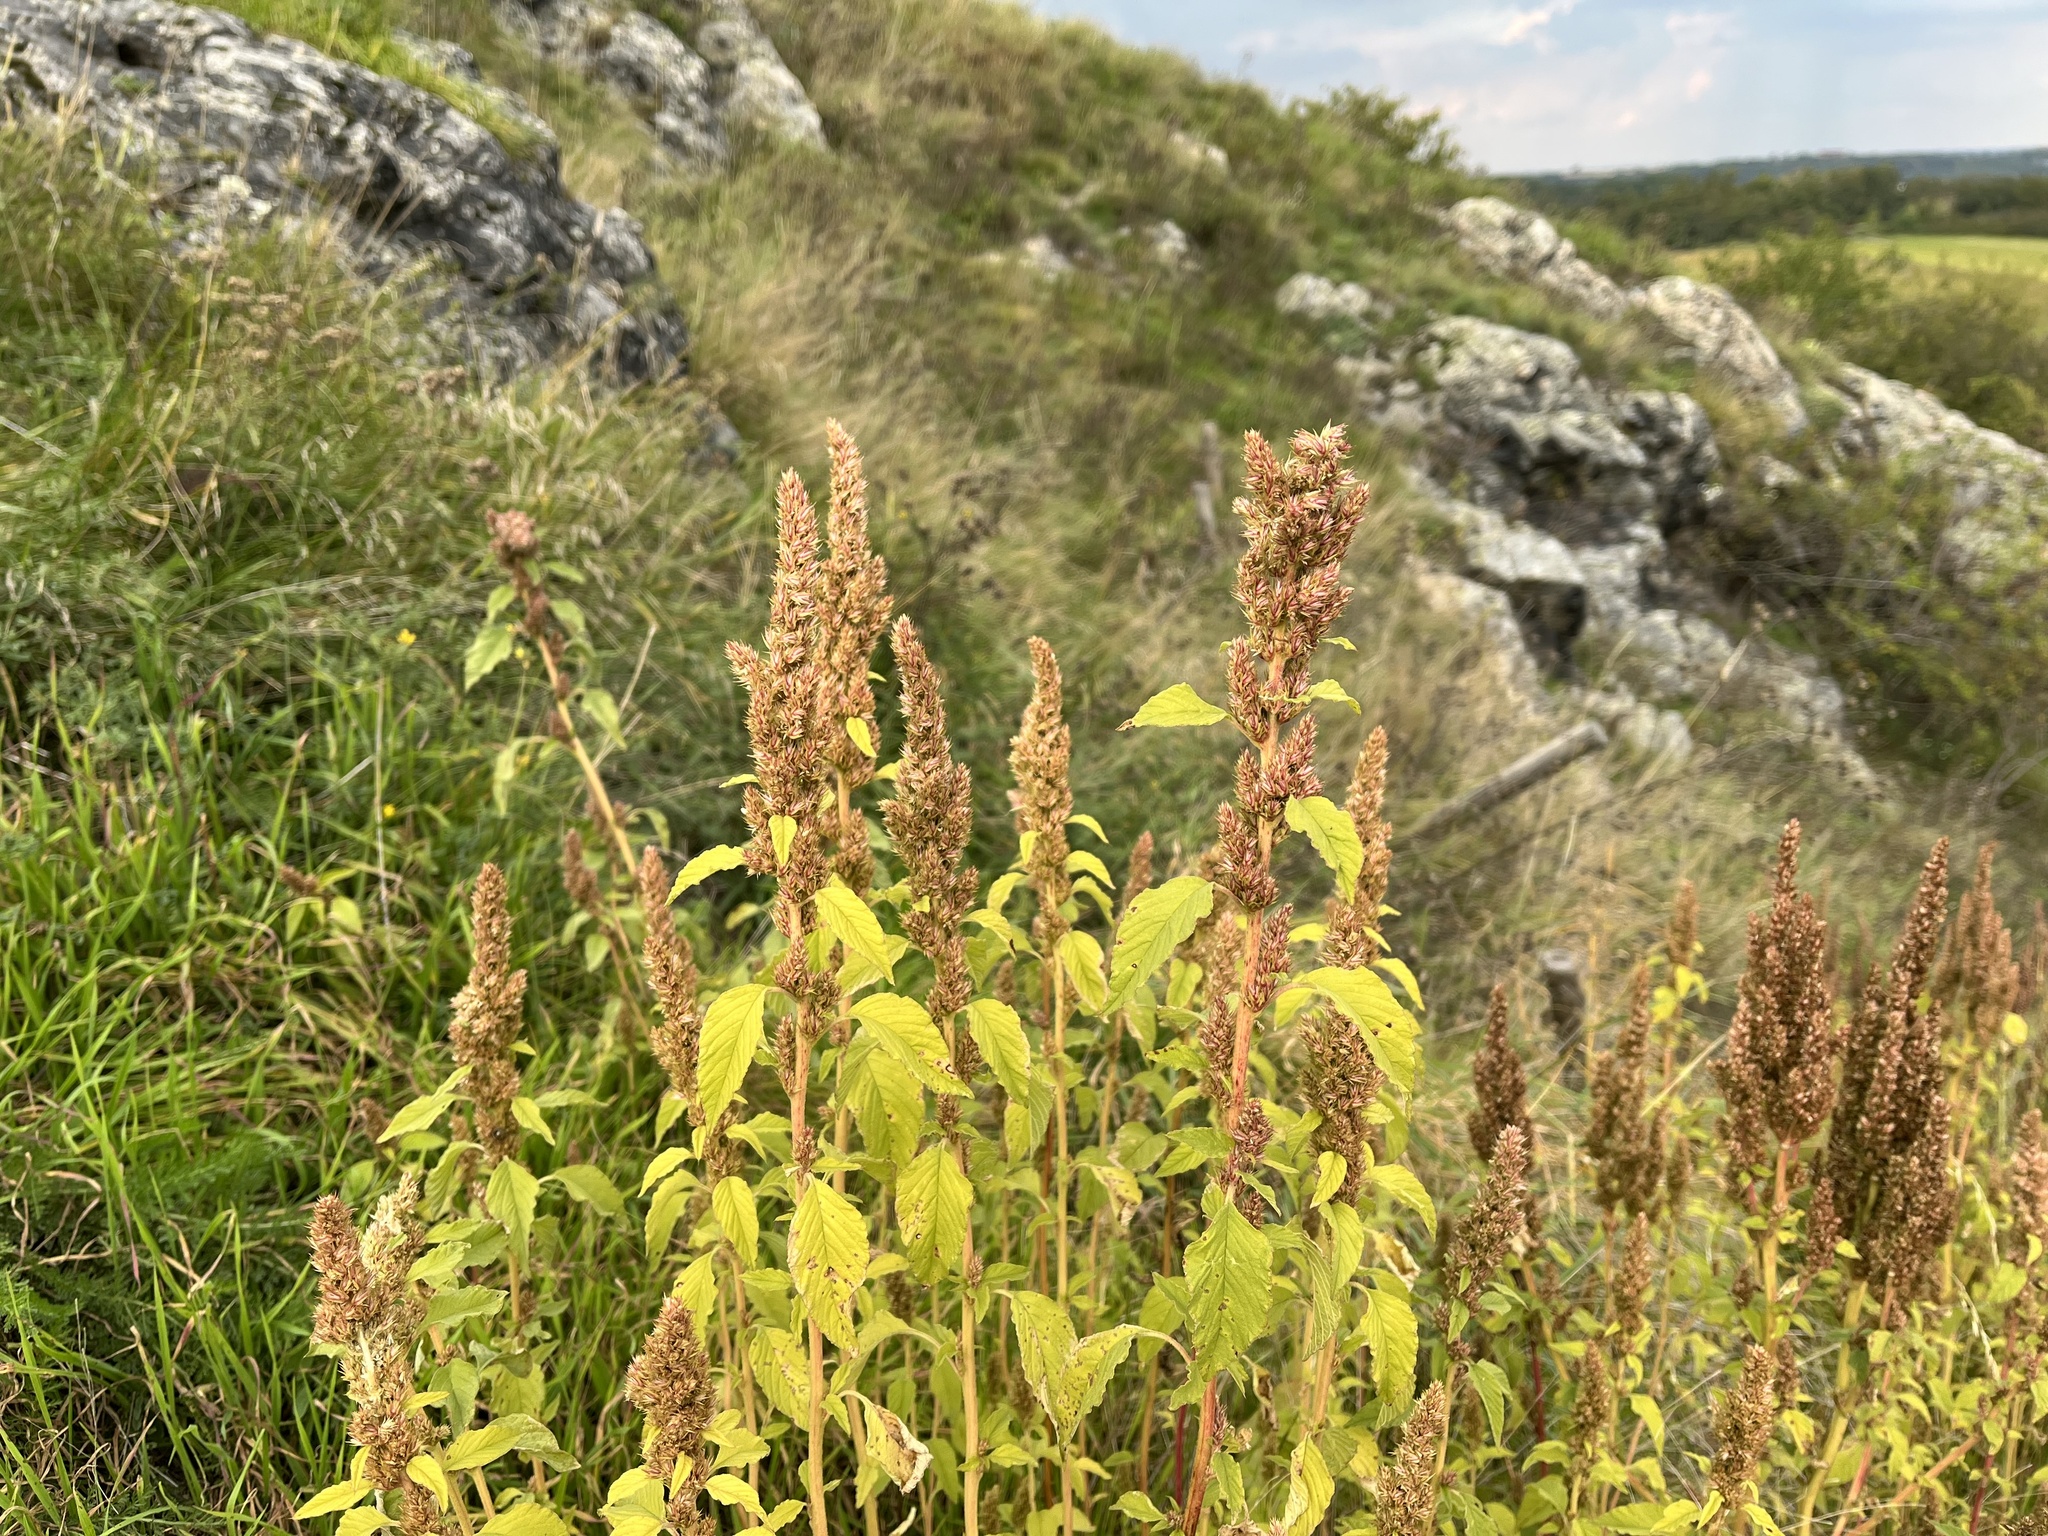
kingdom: Plantae
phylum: Tracheophyta
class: Magnoliopsida
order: Caryophyllales
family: Amaranthaceae
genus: Amaranthus
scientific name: Amaranthus retroflexus
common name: Redroot amaranth
